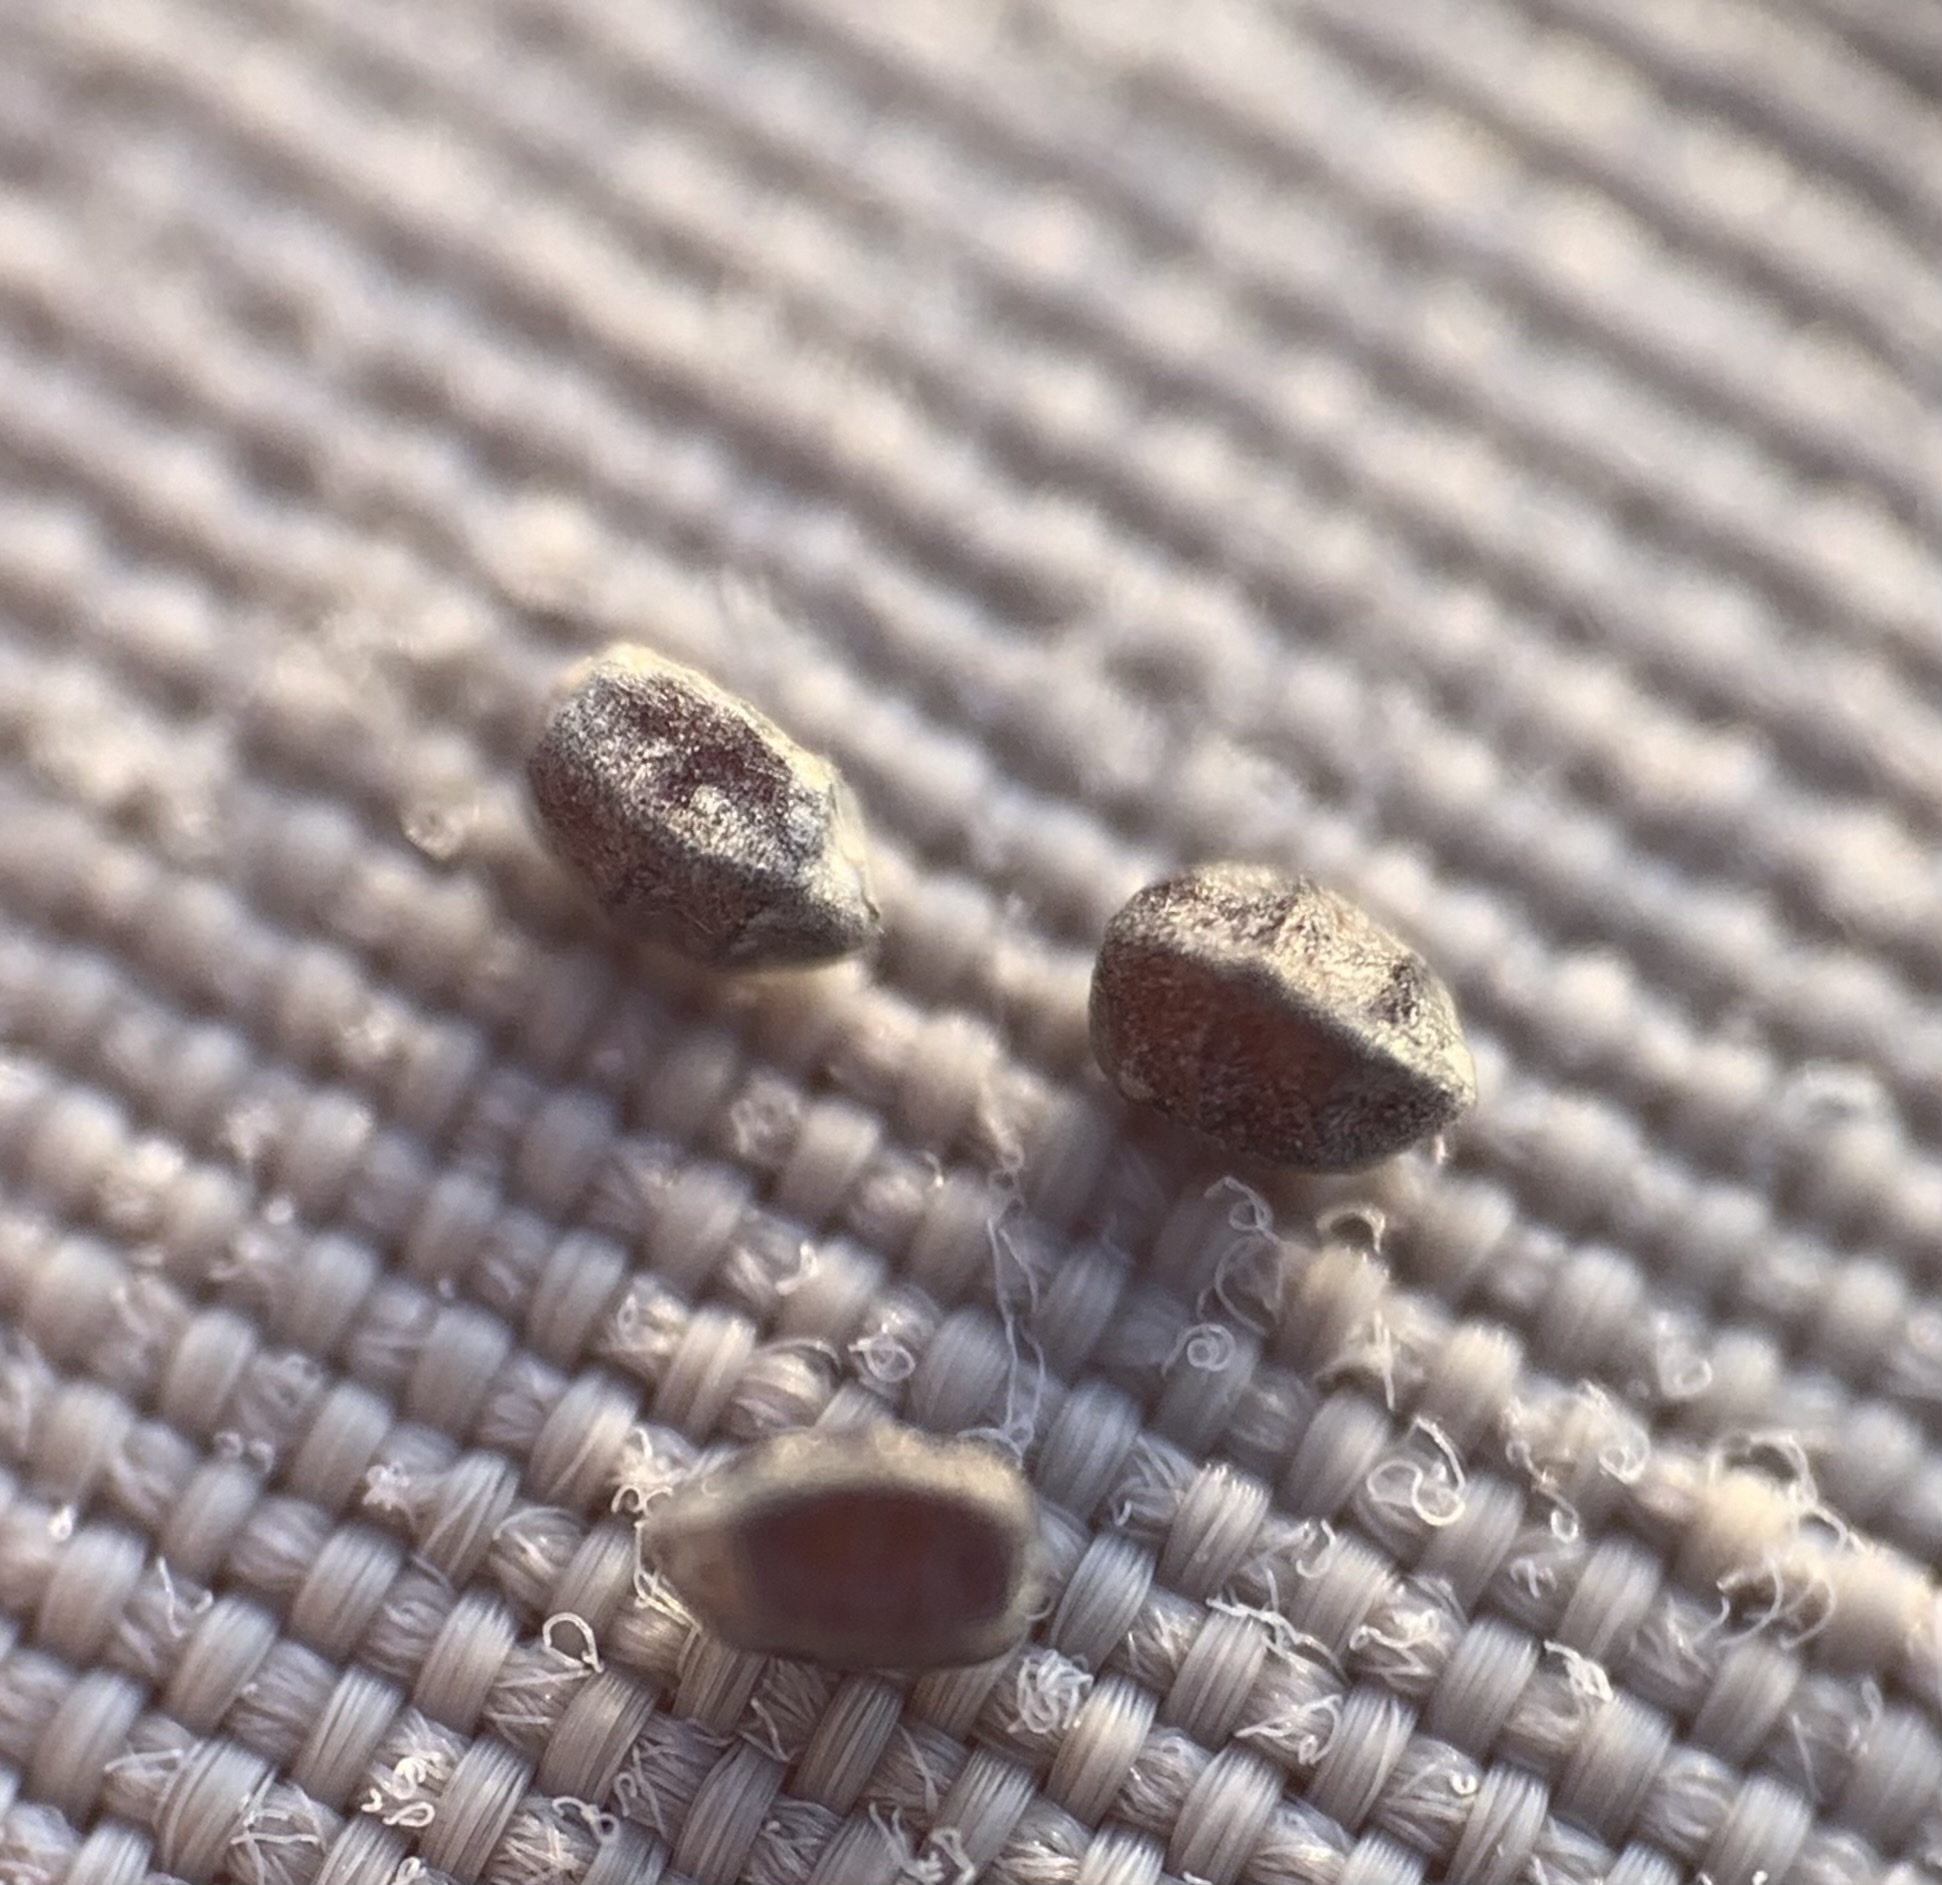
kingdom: Plantae
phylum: Tracheophyta
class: Magnoliopsida
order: Malpighiales
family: Euphorbiaceae
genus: Euphorbia
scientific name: Euphorbia hyssopifolia
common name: Hyssopleaf sandmat
